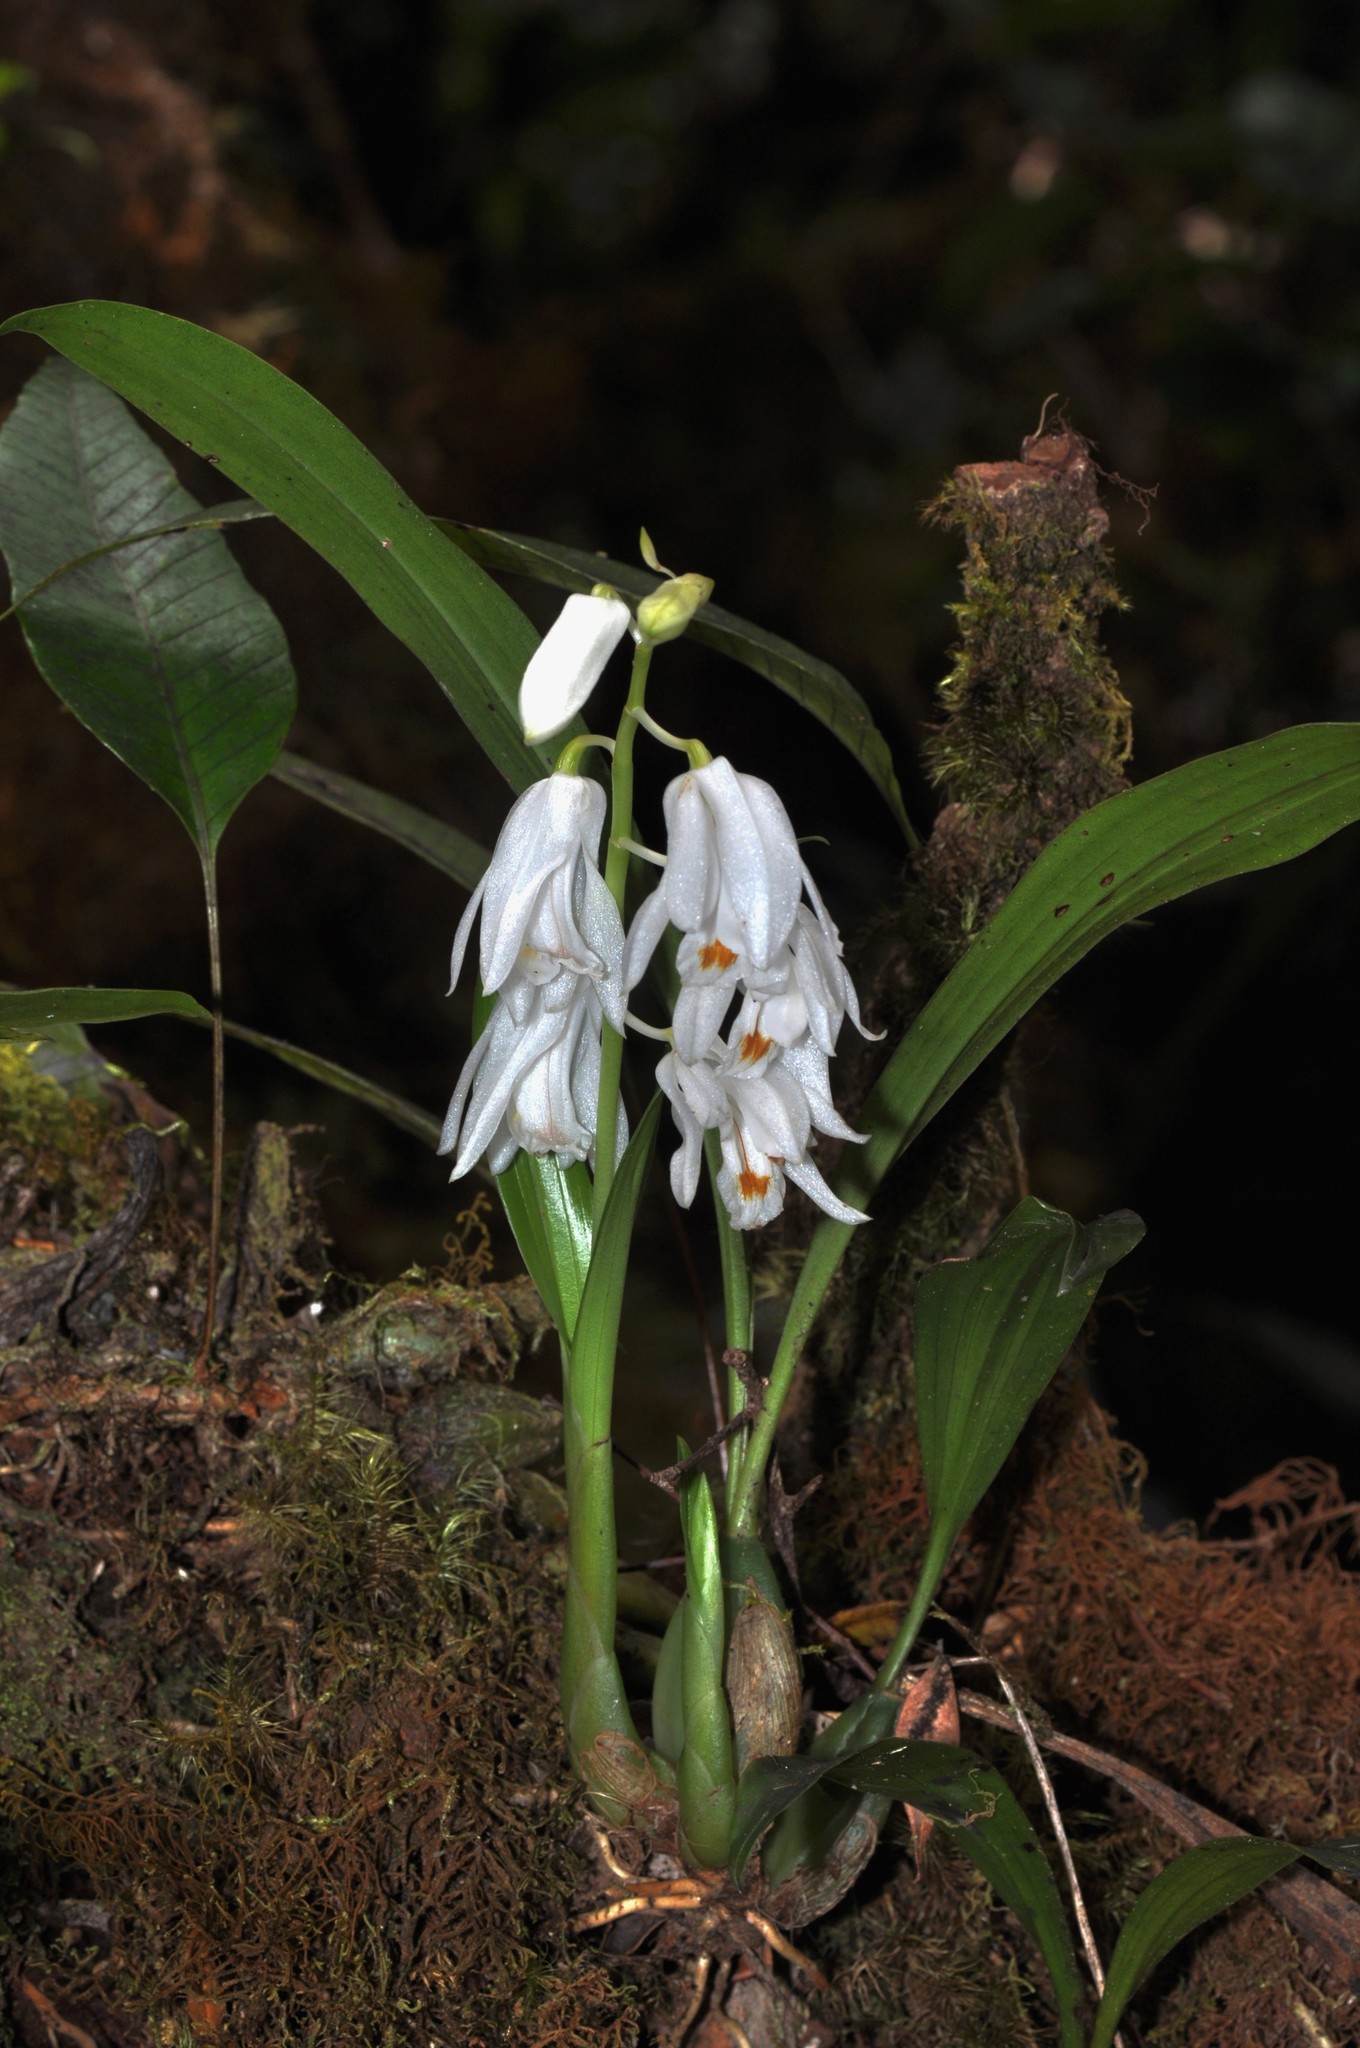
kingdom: Plantae
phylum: Tracheophyta
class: Liliopsida
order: Asparagales
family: Orchidaceae
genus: Coelogyne
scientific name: Coelogyne kemiriensis
